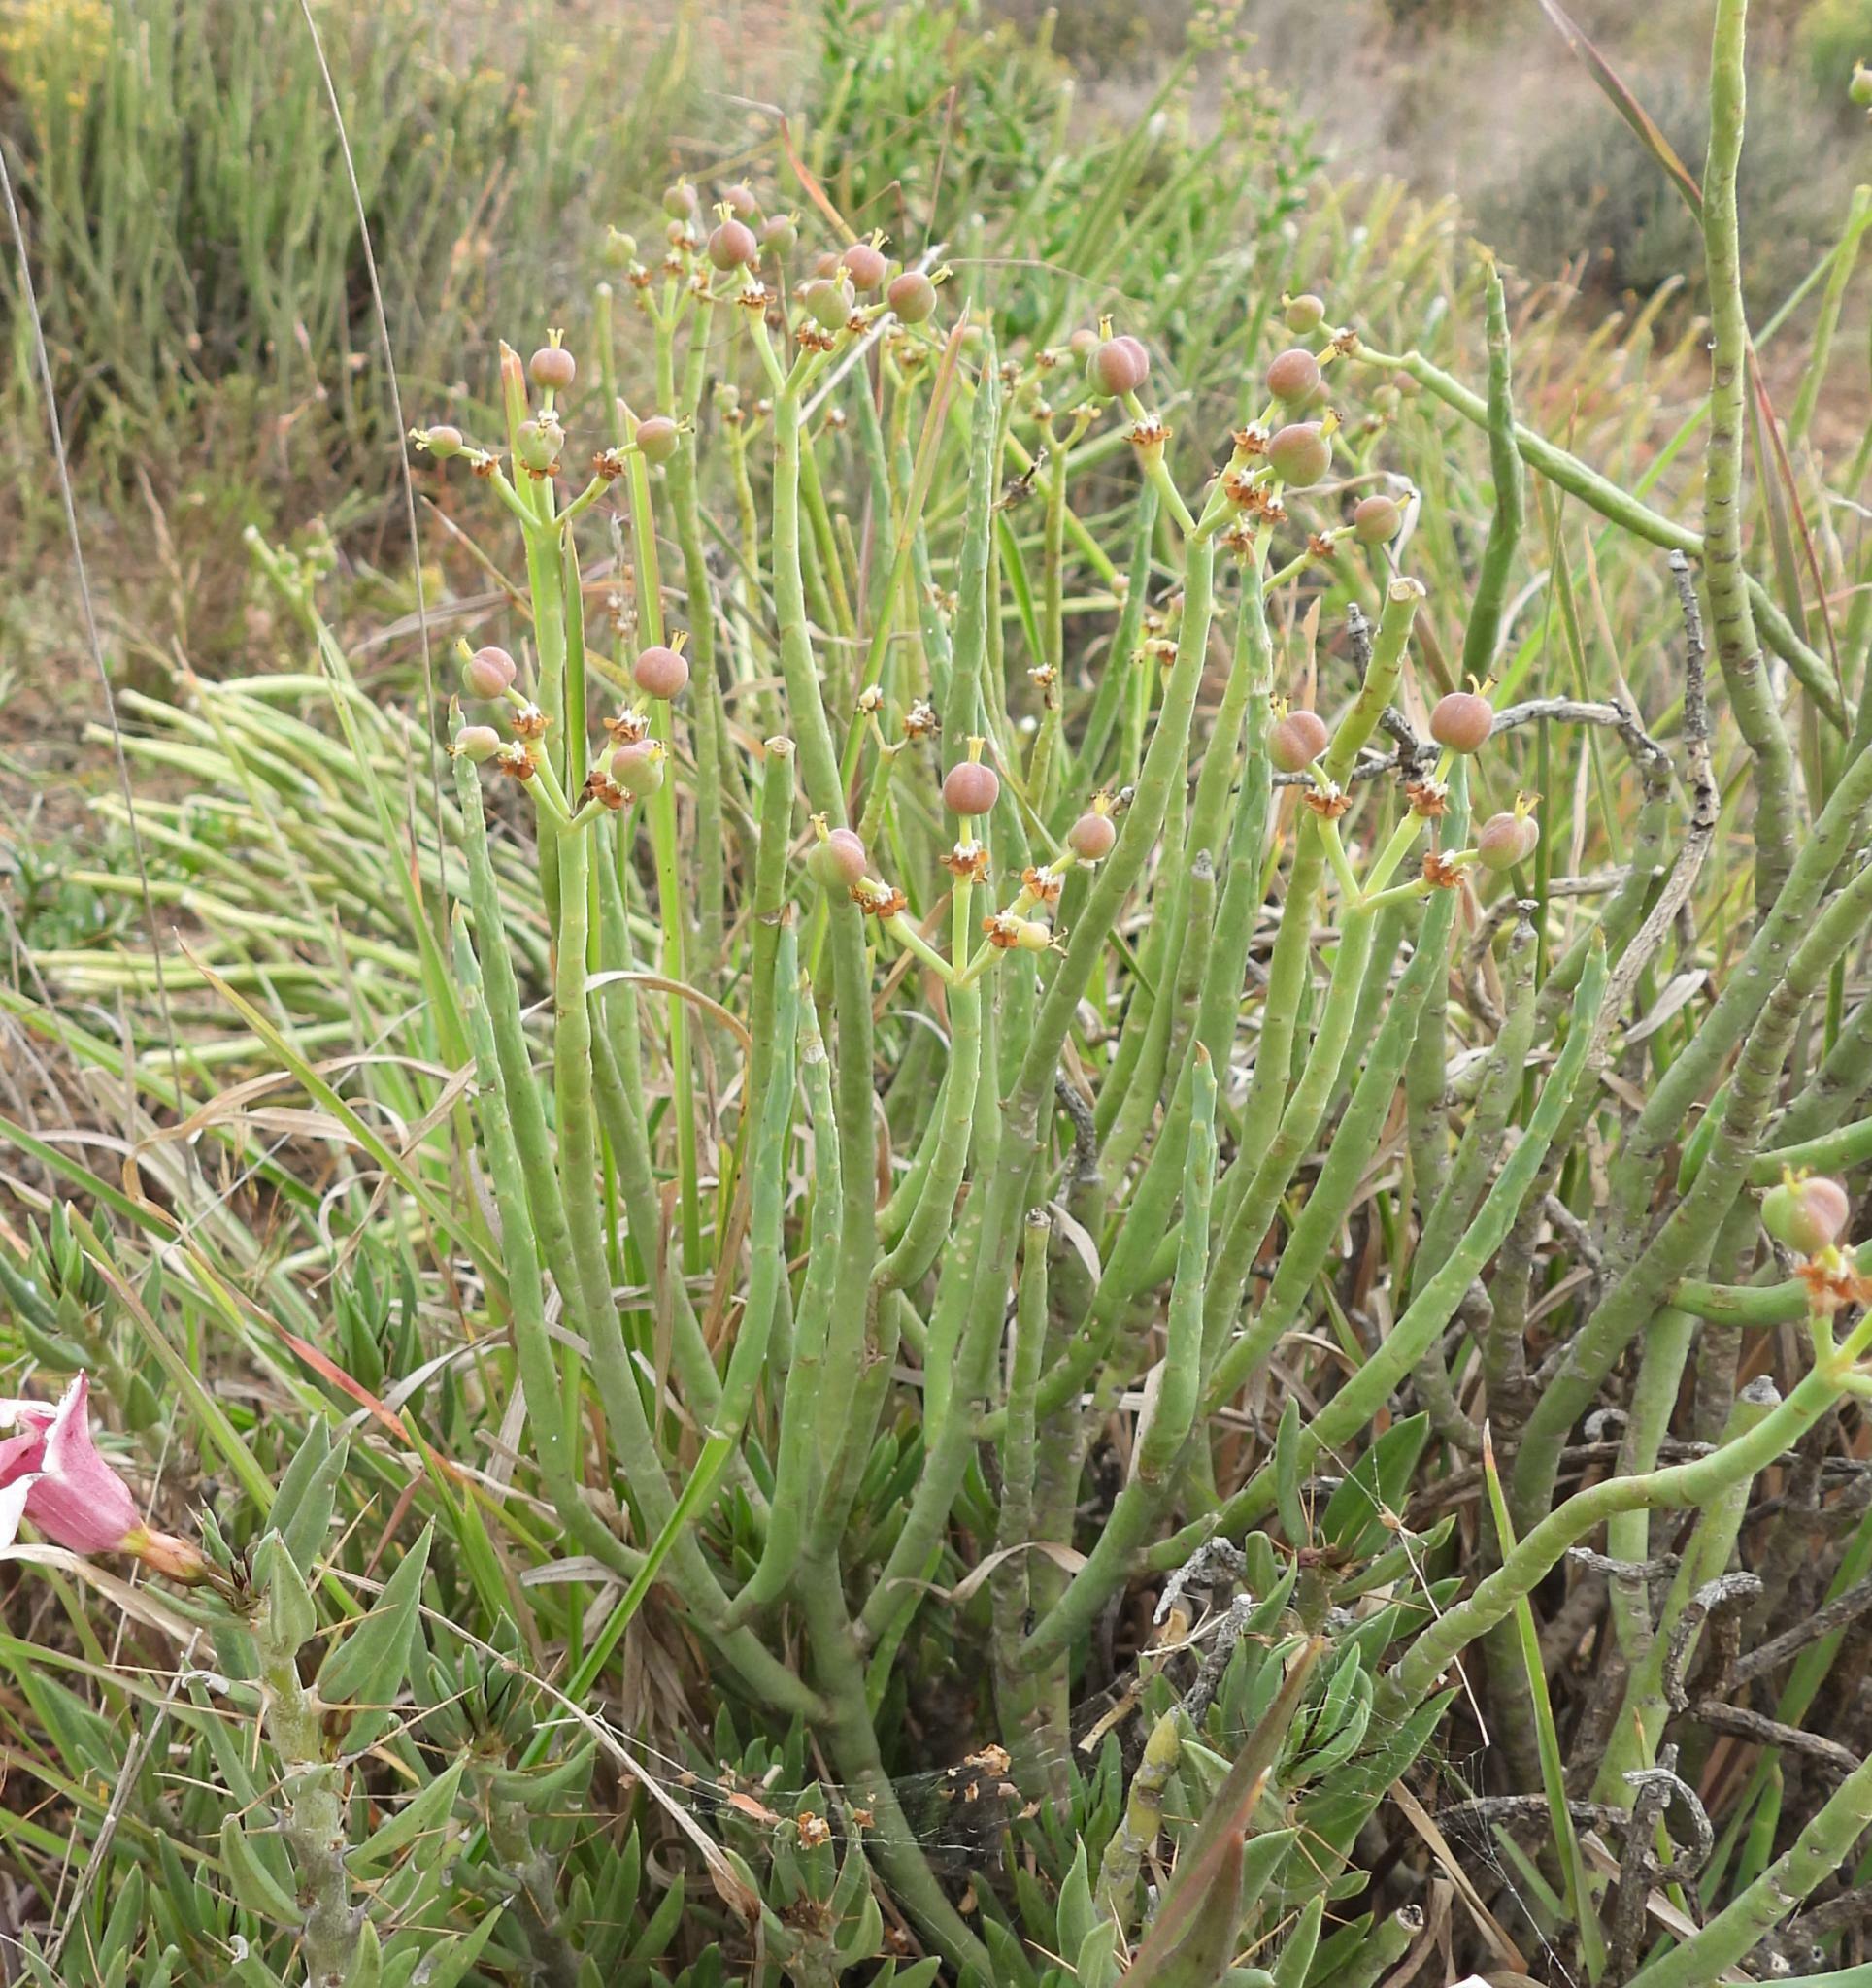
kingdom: Plantae
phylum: Tracheophyta
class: Magnoliopsida
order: Malpighiales
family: Euphorbiaceae
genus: Euphorbia
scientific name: Euphorbia mauritanica
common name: Jackal's-food
